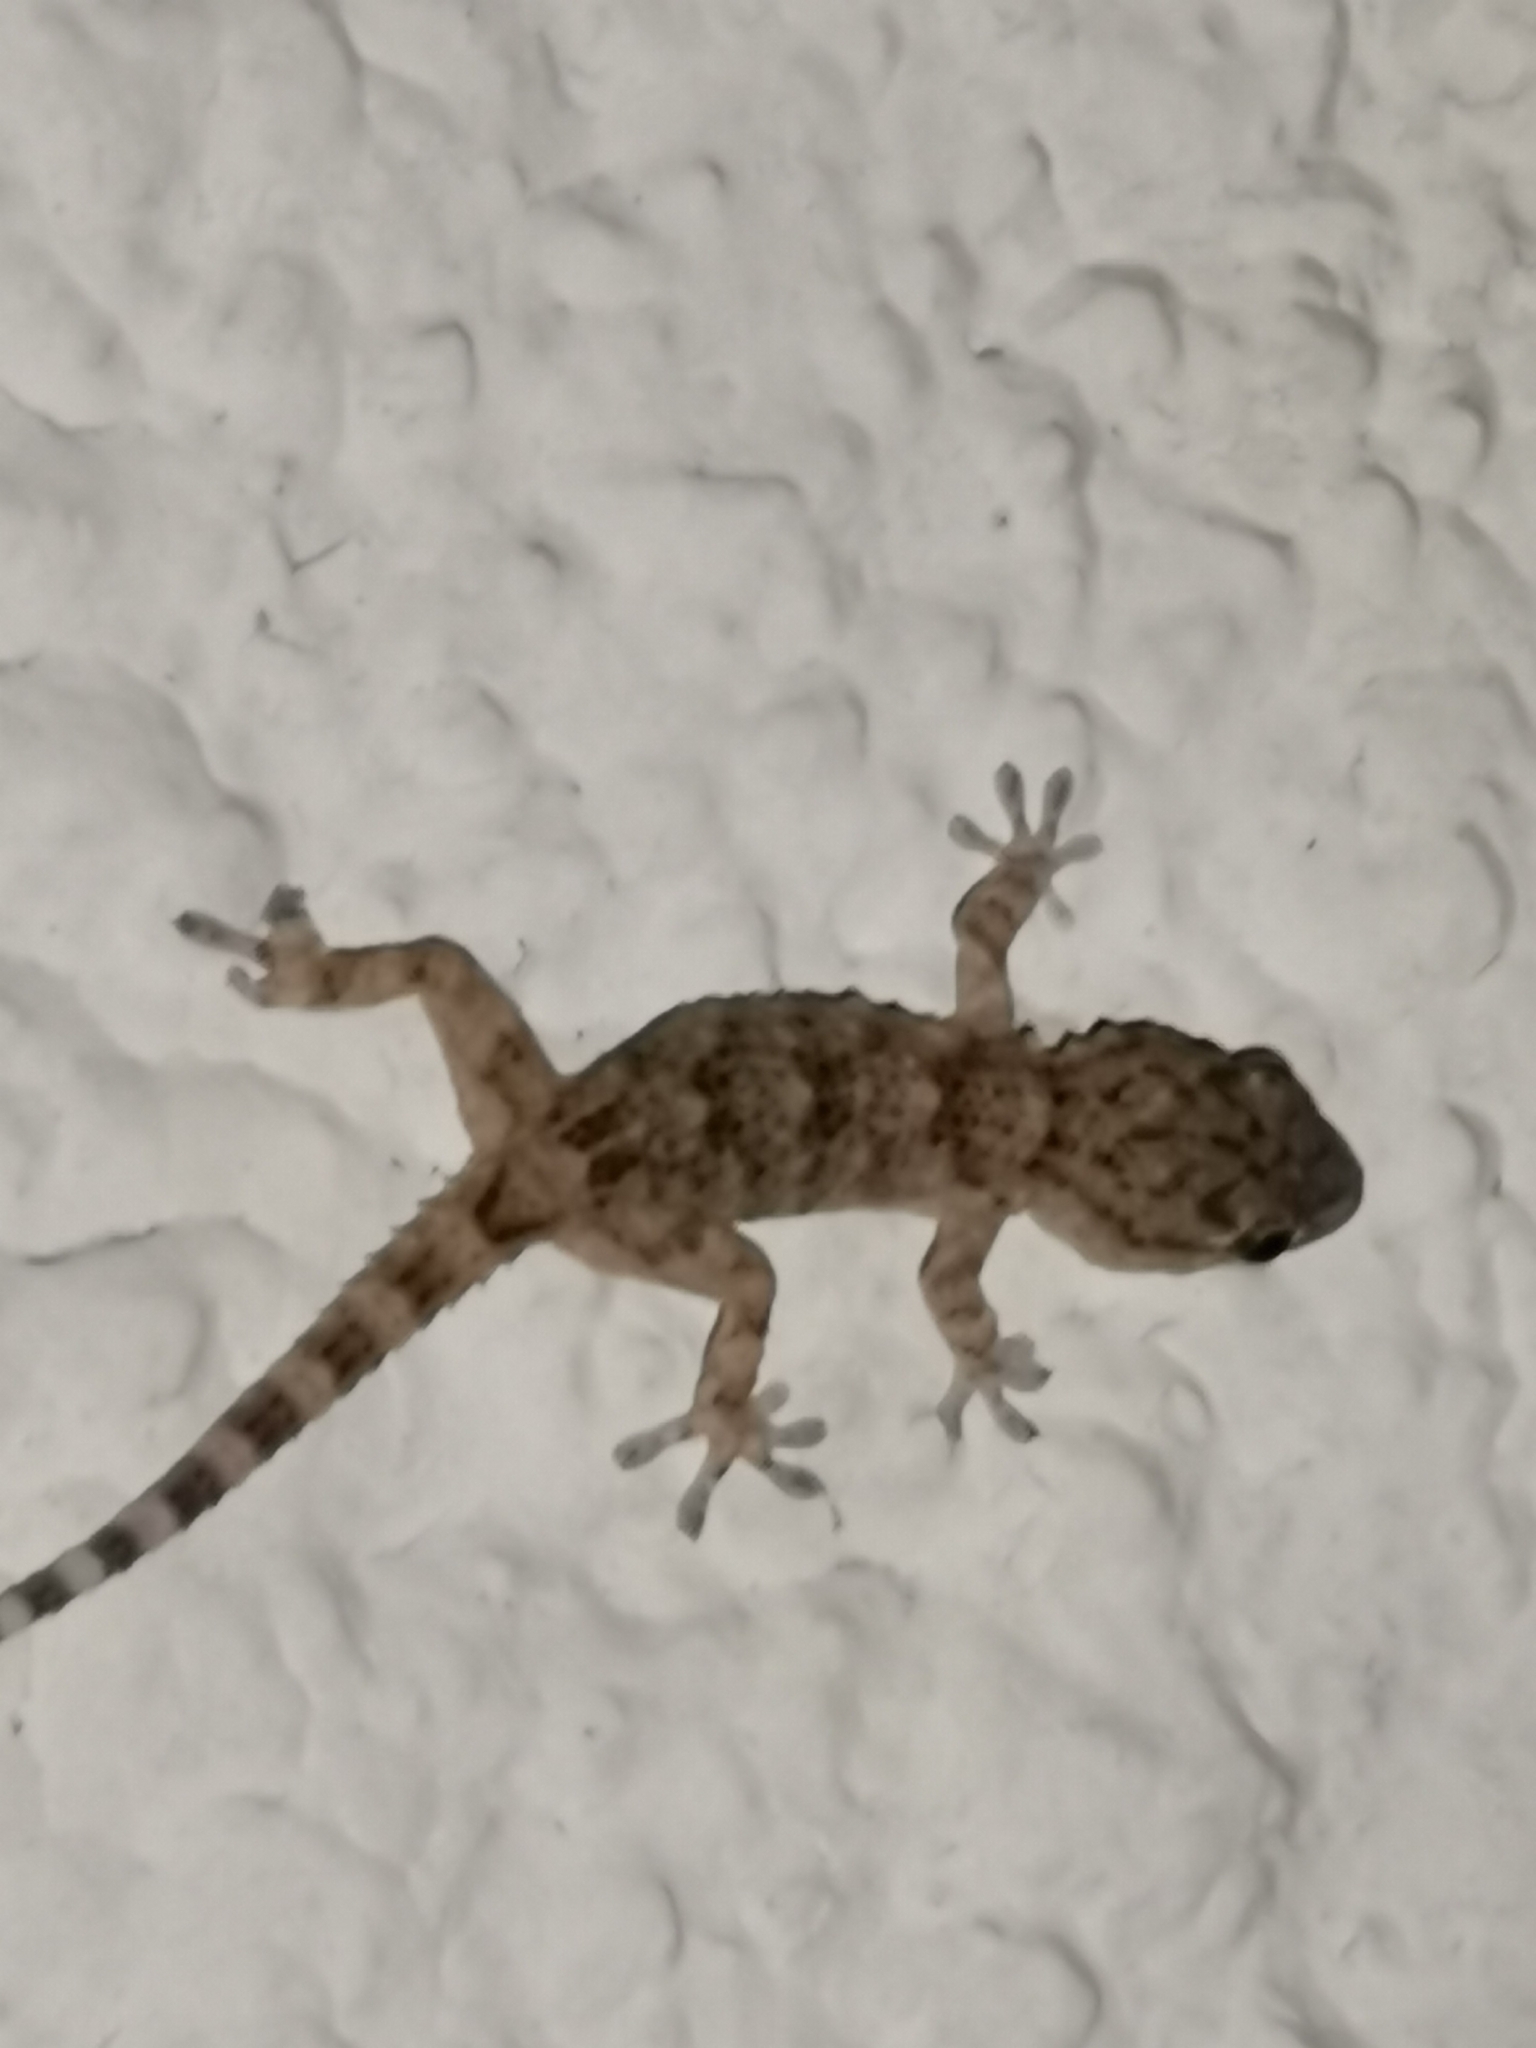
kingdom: Animalia
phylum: Chordata
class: Squamata
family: Phyllodactylidae
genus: Tarentola
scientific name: Tarentola mauritanica
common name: Moorish gecko
